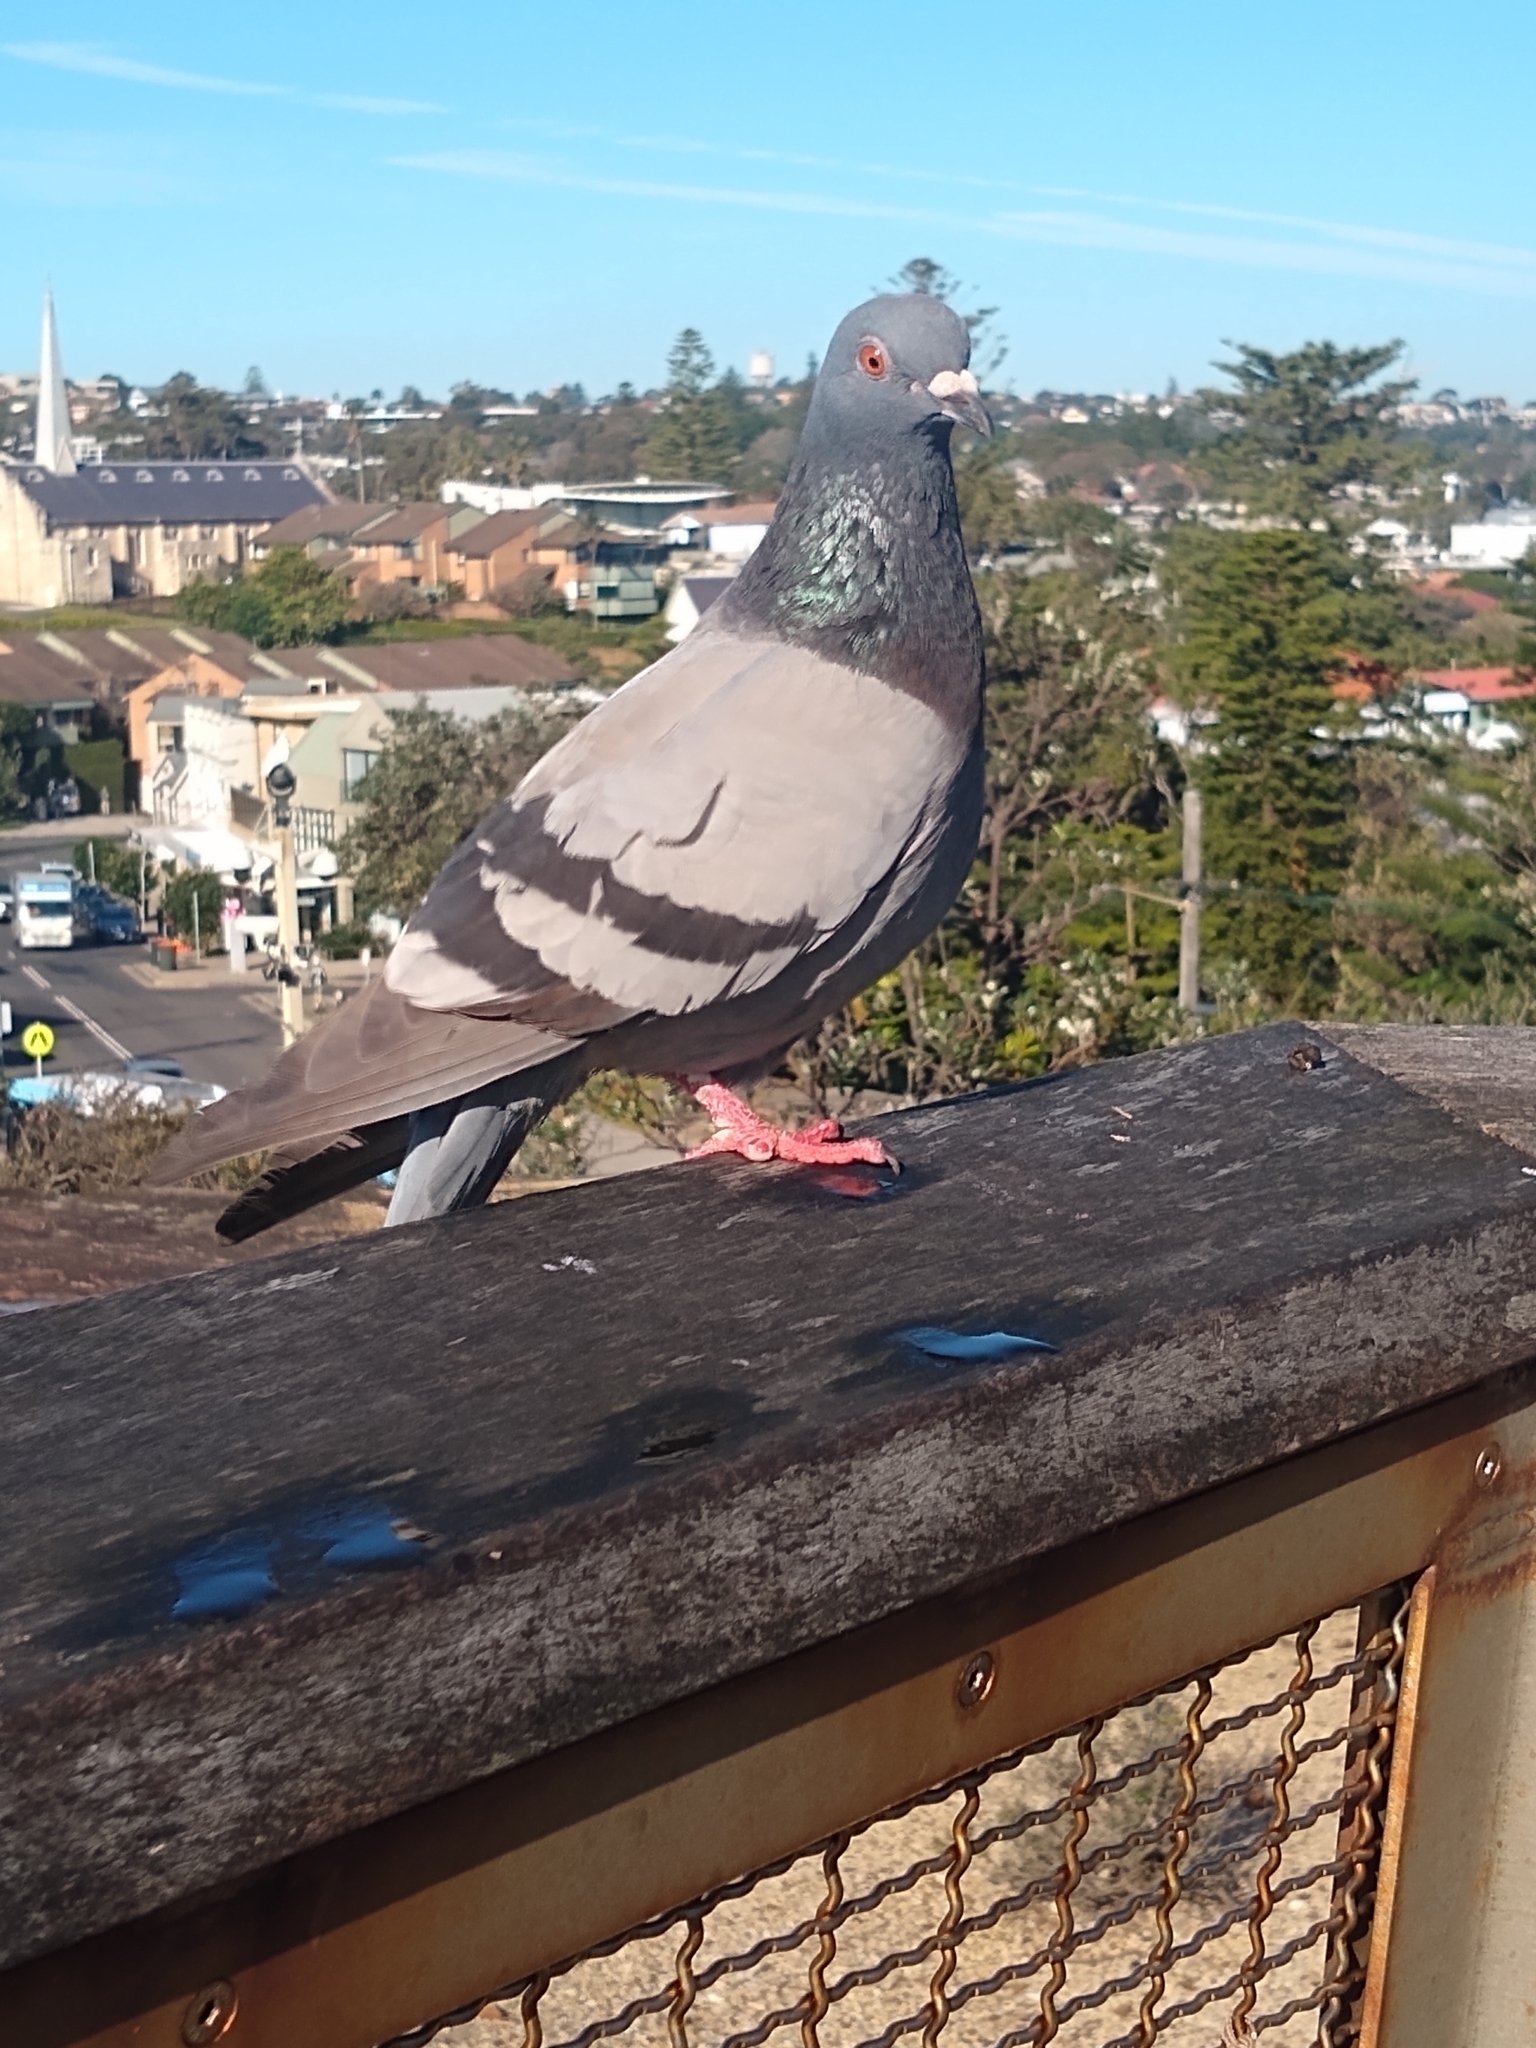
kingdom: Animalia
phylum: Chordata
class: Aves
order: Columbiformes
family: Columbidae
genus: Columba
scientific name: Columba livia
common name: Rock pigeon
